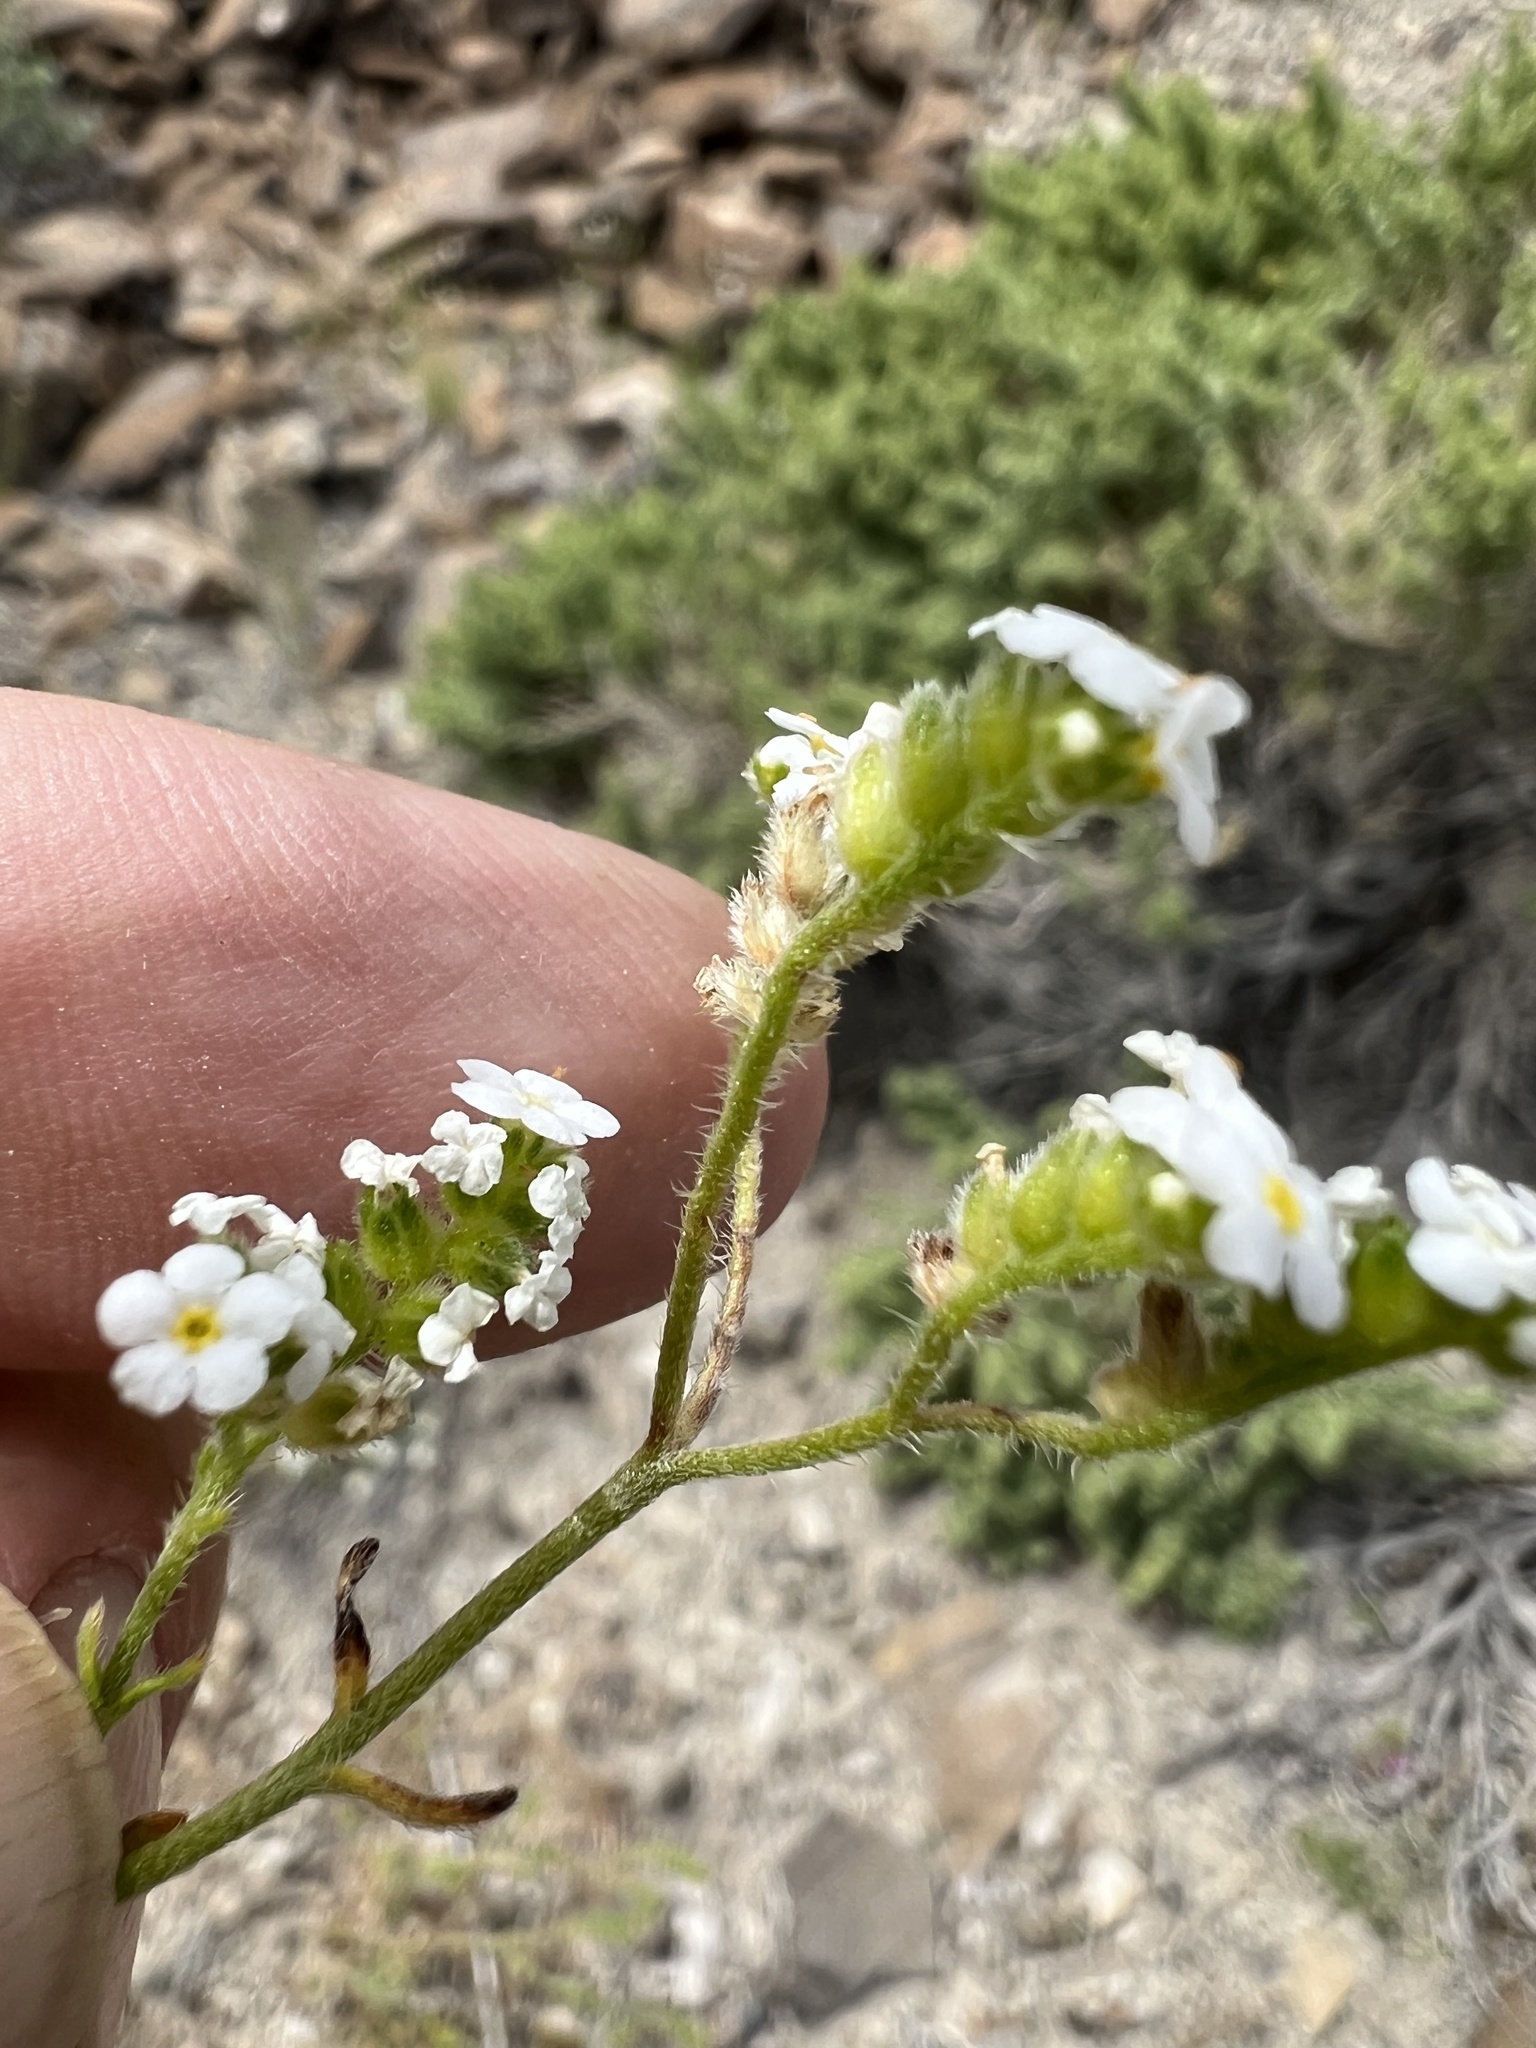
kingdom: Plantae
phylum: Tracheophyta
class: Magnoliopsida
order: Boraginales
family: Boraginaceae
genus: Cryptantha
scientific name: Cryptantha utahensis
